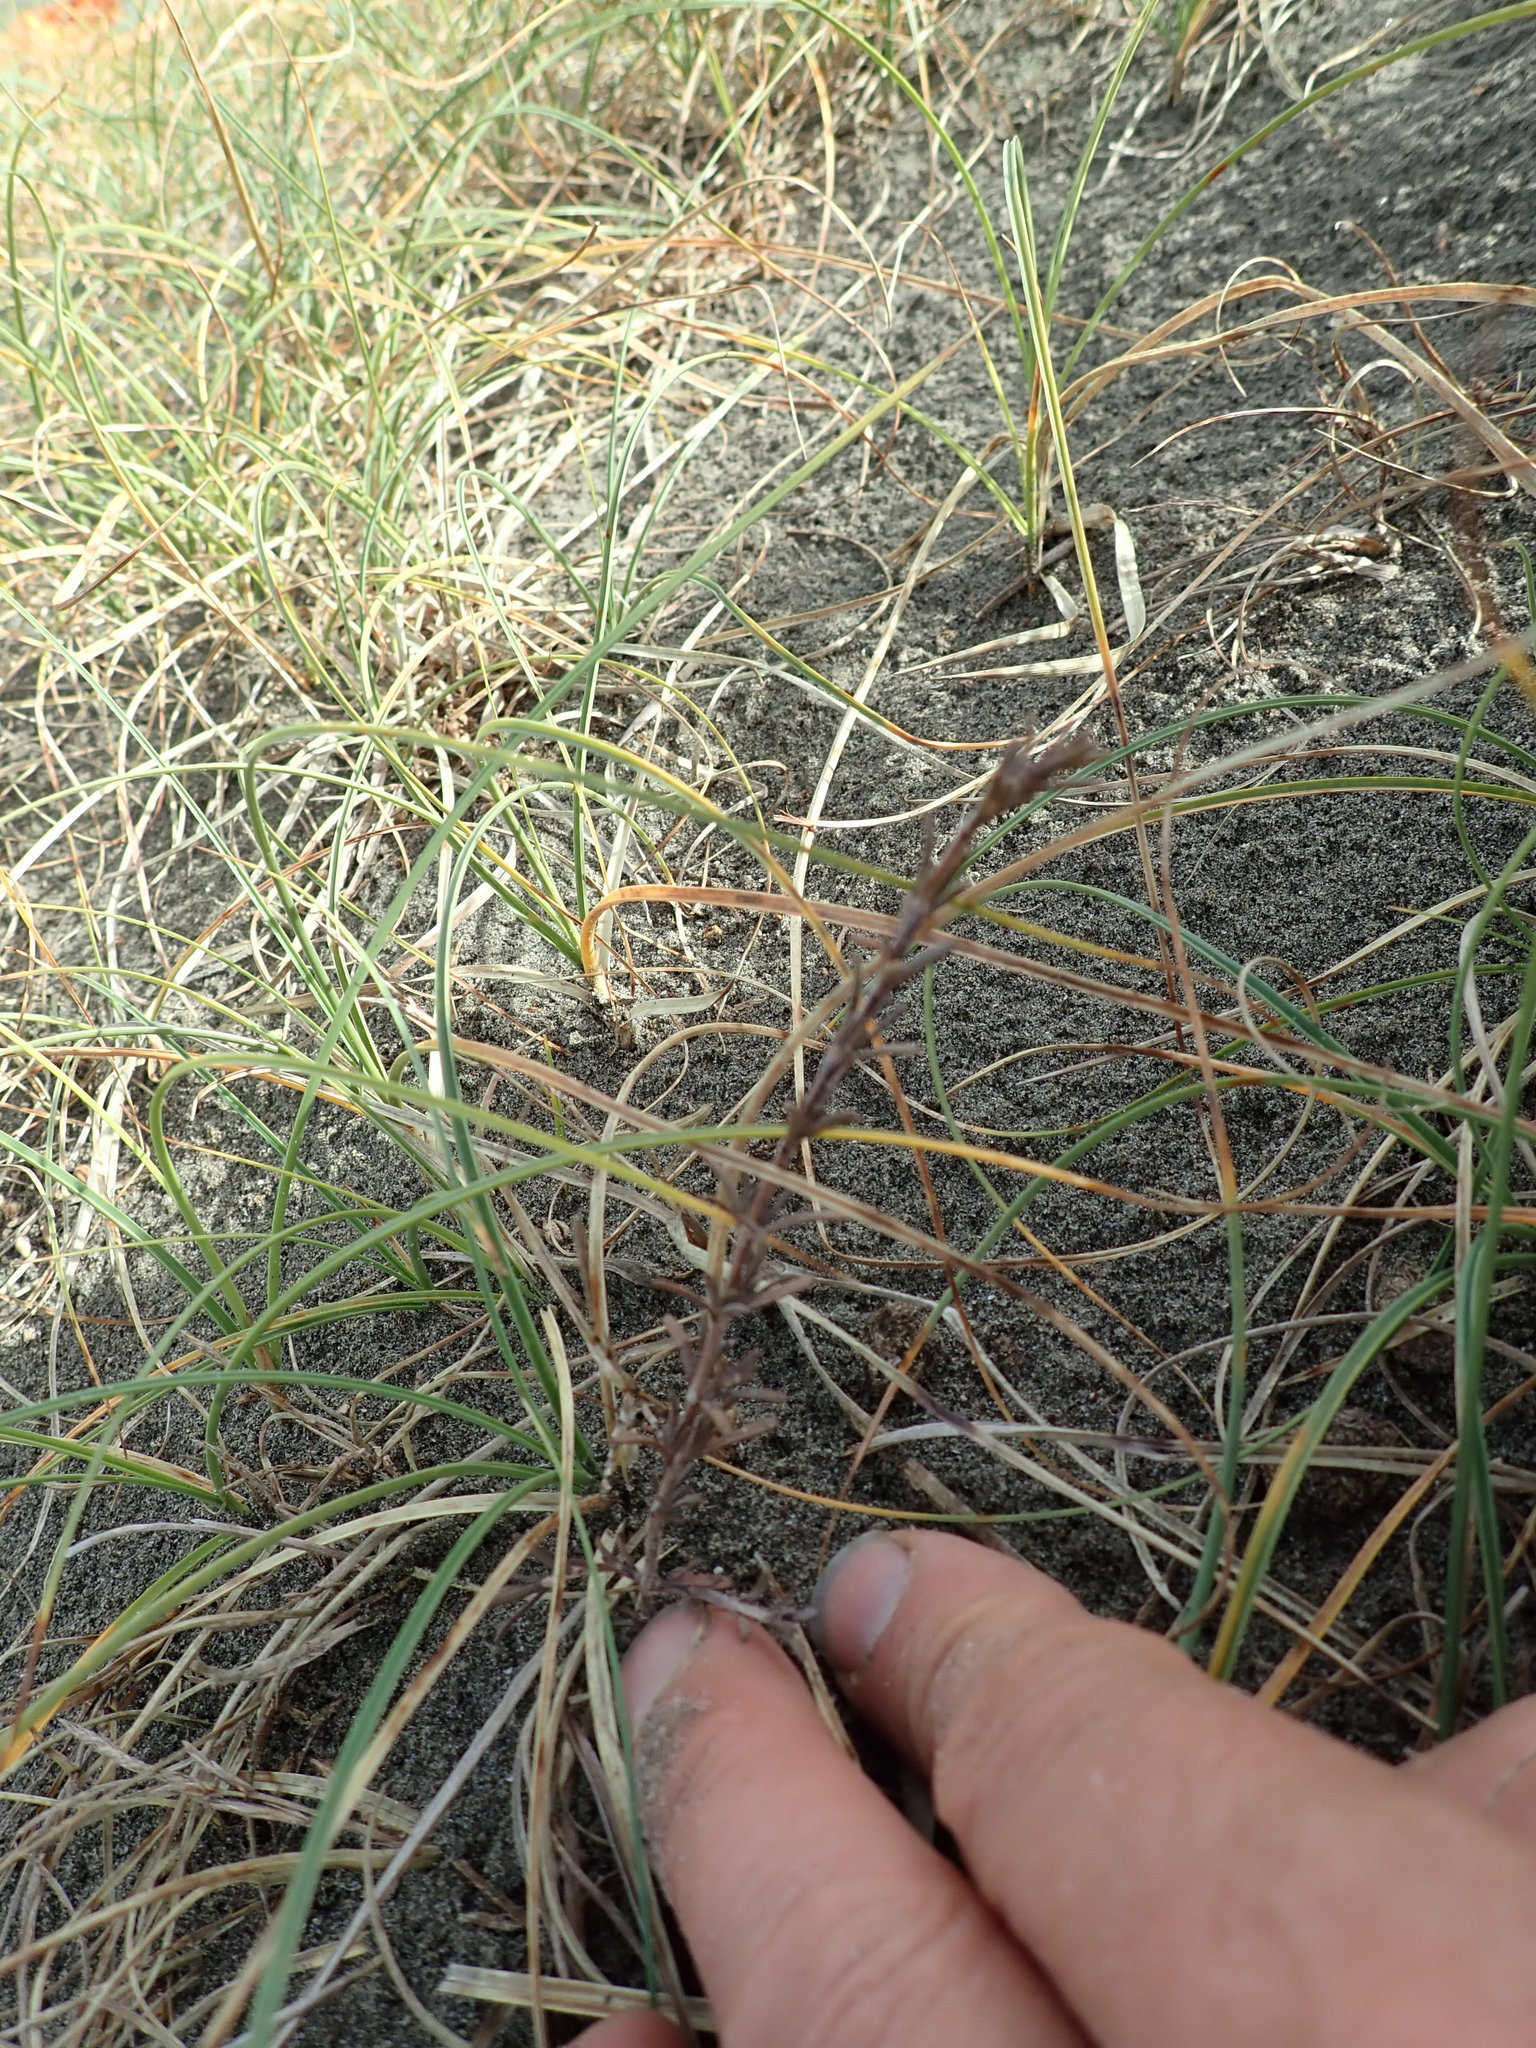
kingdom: Plantae
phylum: Tracheophyta
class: Magnoliopsida
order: Gentianales
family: Rubiaceae
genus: Coprosma
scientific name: Coprosma acerosa
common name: Sand coprosma
